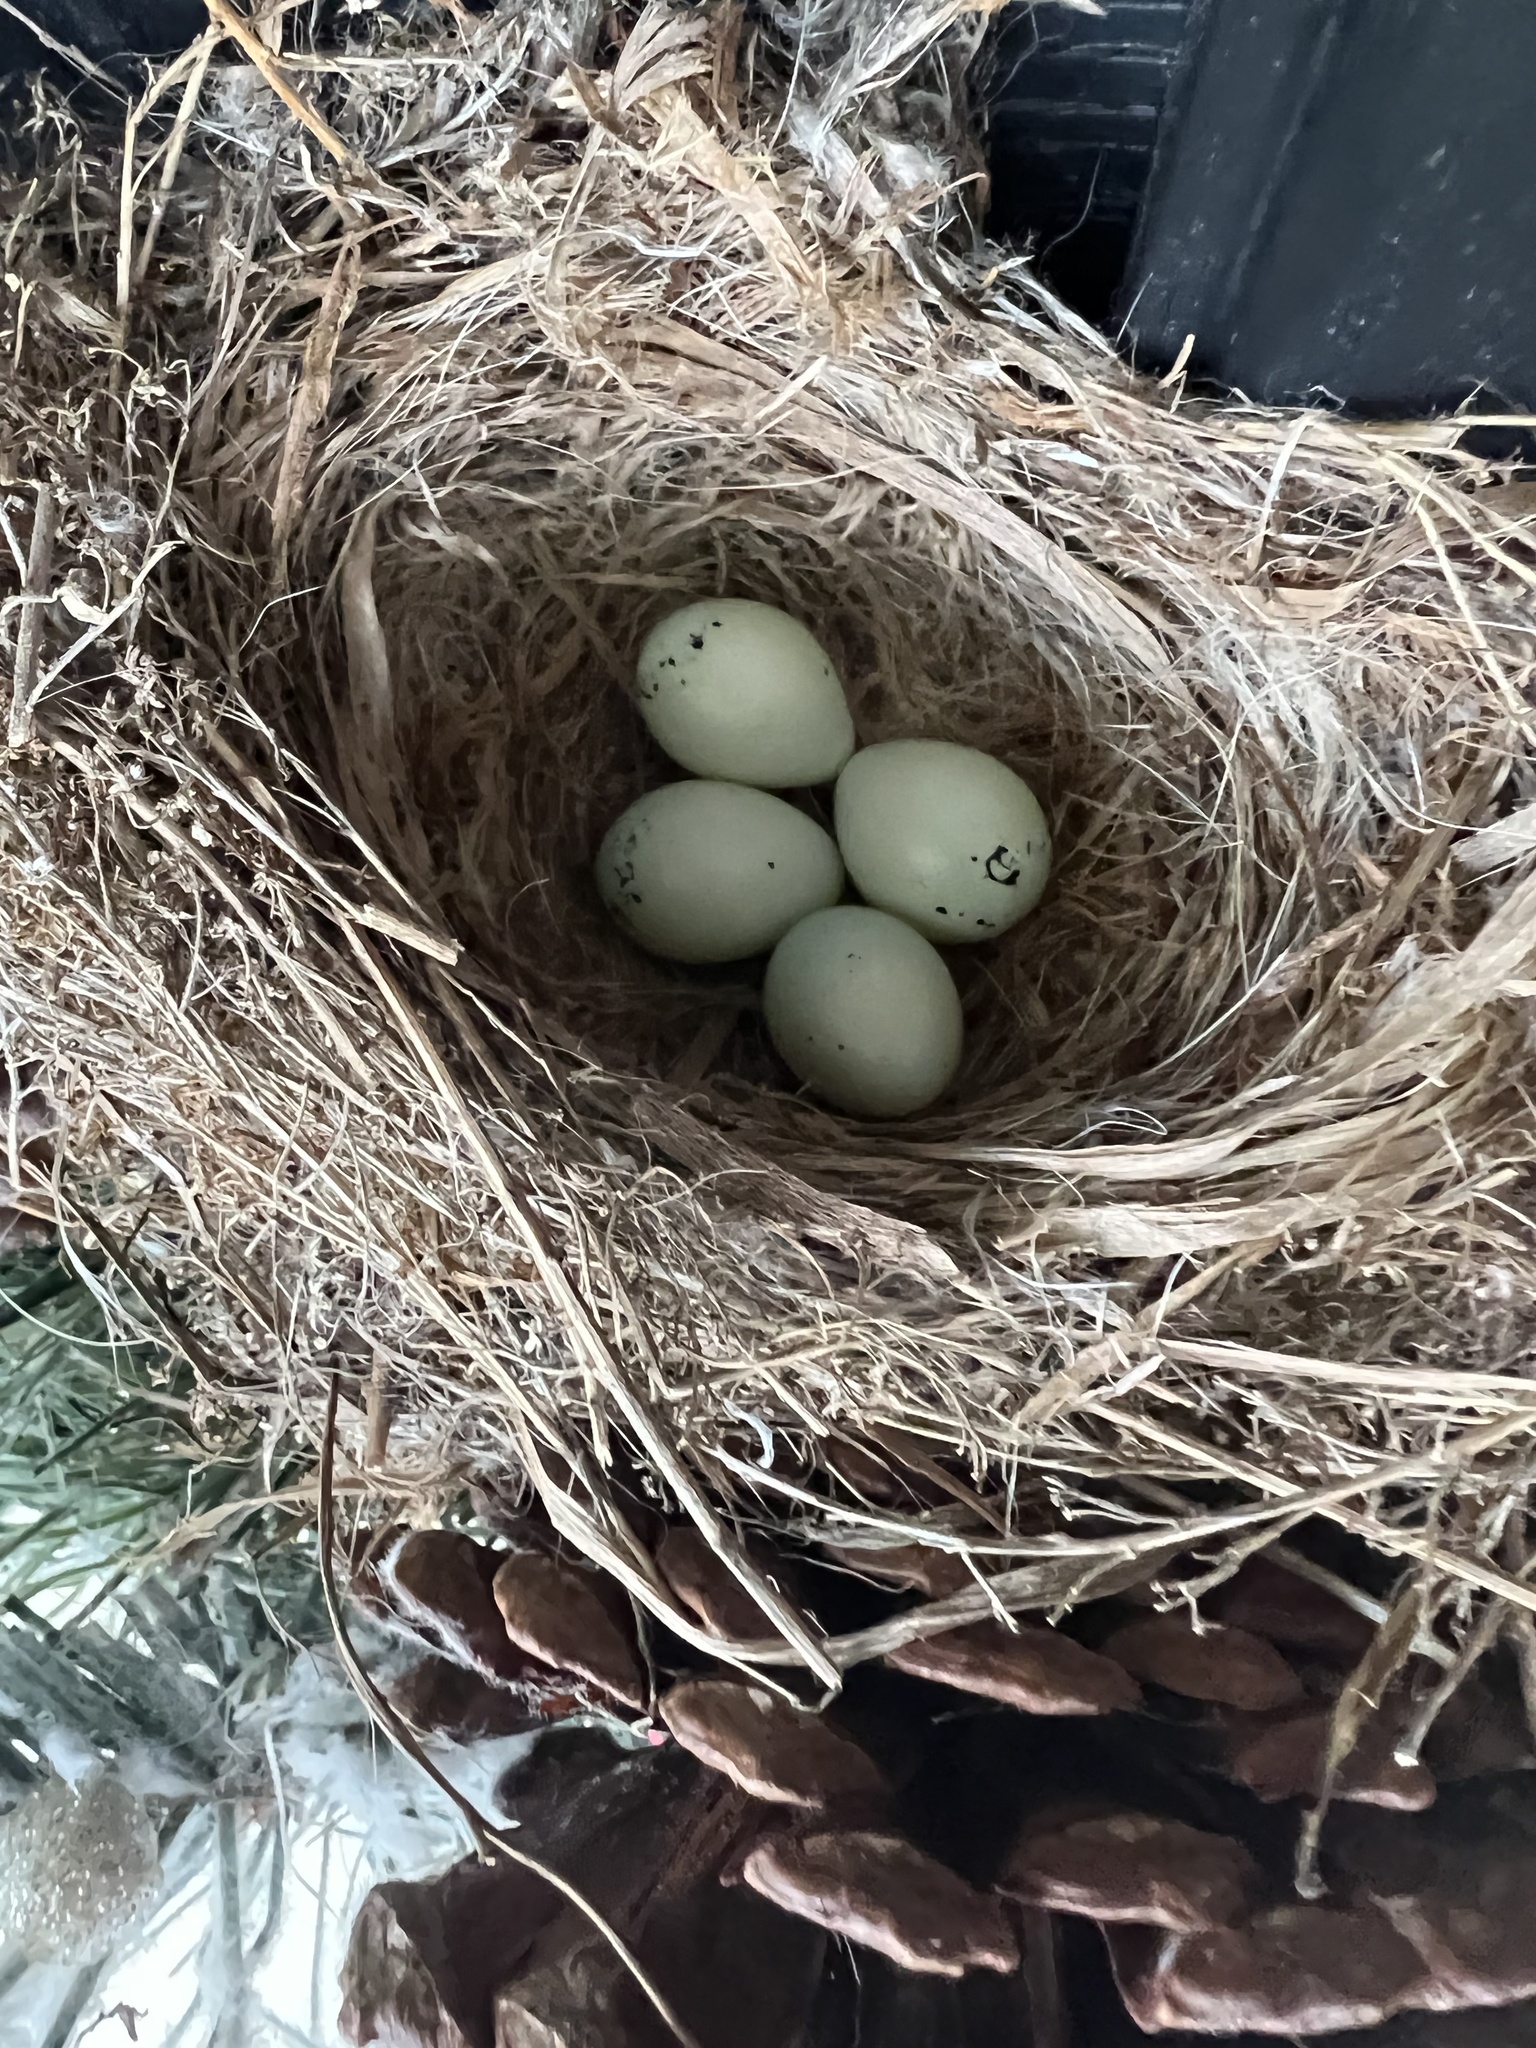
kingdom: Animalia
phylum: Chordata
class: Aves
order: Passeriformes
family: Fringillidae
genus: Haemorhous
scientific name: Haemorhous mexicanus
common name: House finch
